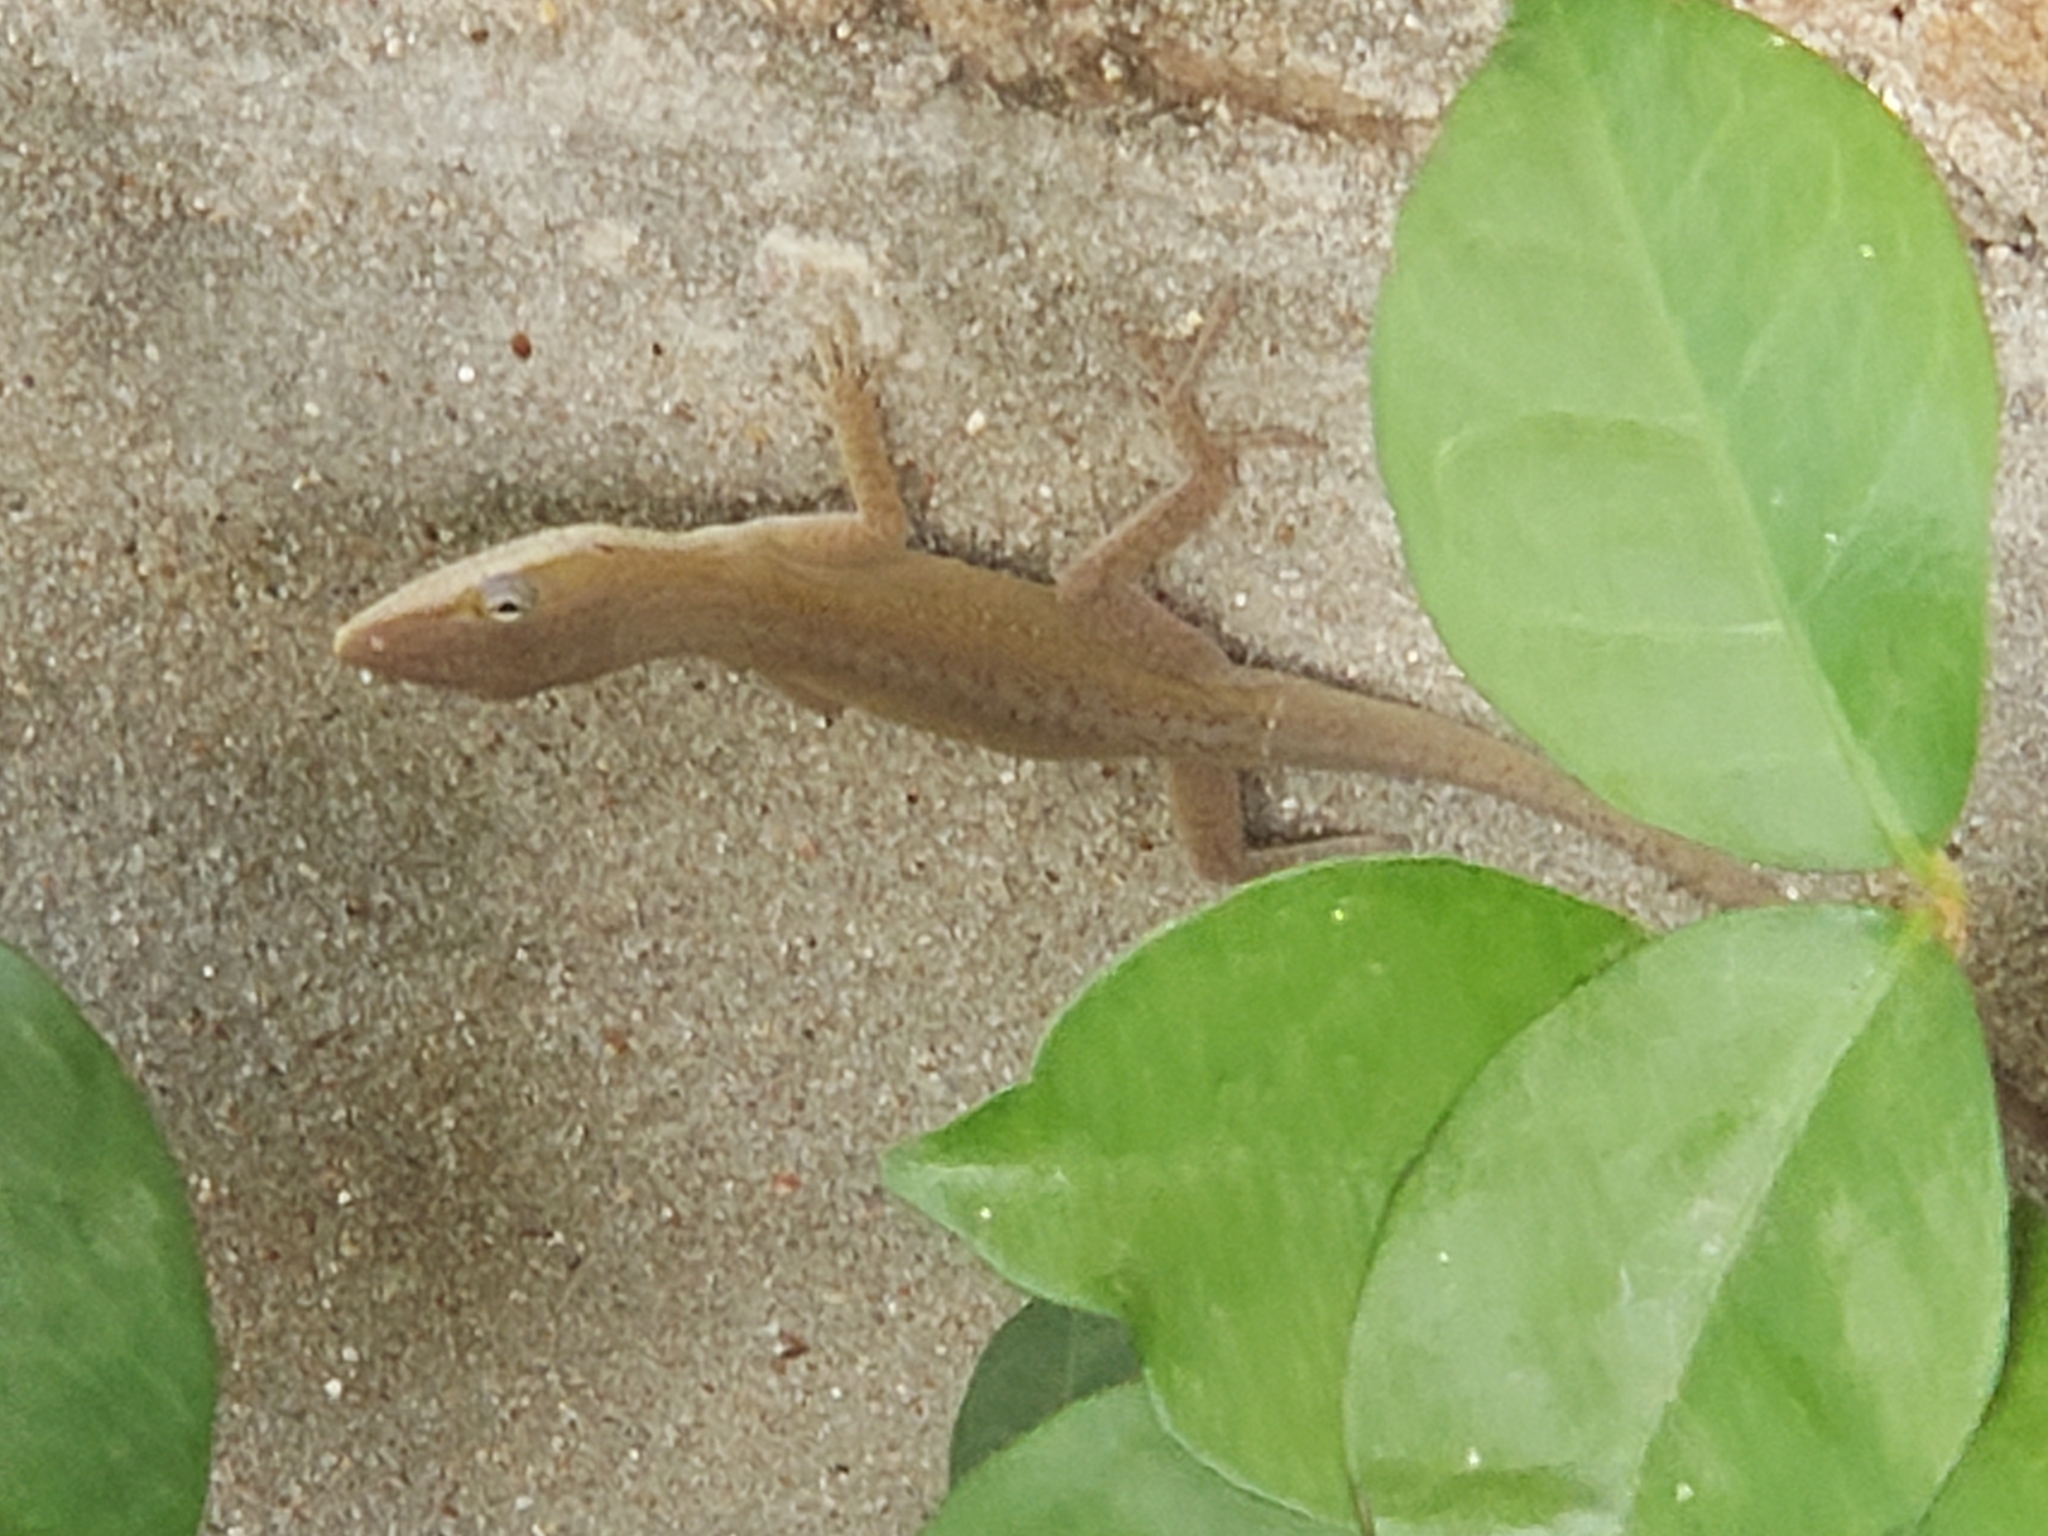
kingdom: Animalia
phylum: Chordata
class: Squamata
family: Dactyloidae
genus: Anolis
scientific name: Anolis carolinensis
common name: Green anole
